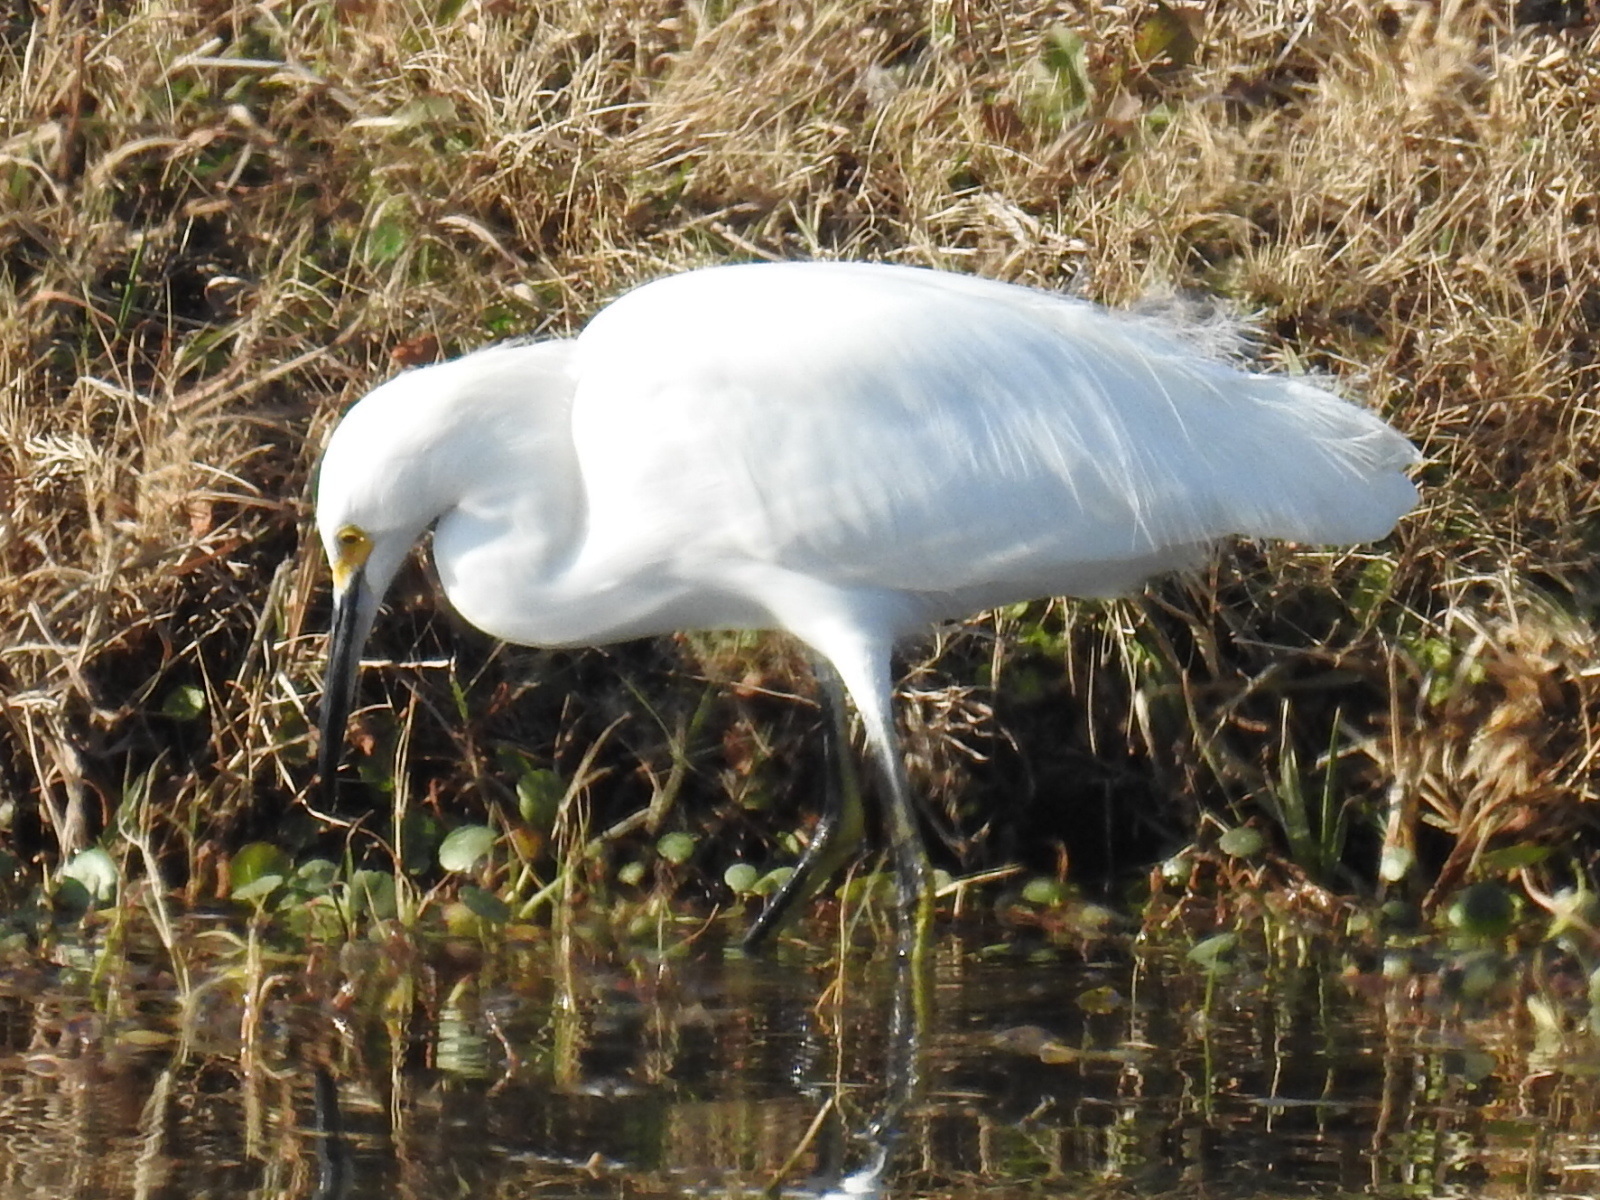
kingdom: Animalia
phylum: Chordata
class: Aves
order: Pelecaniformes
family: Ardeidae
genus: Egretta
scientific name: Egretta thula
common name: Snowy egret
